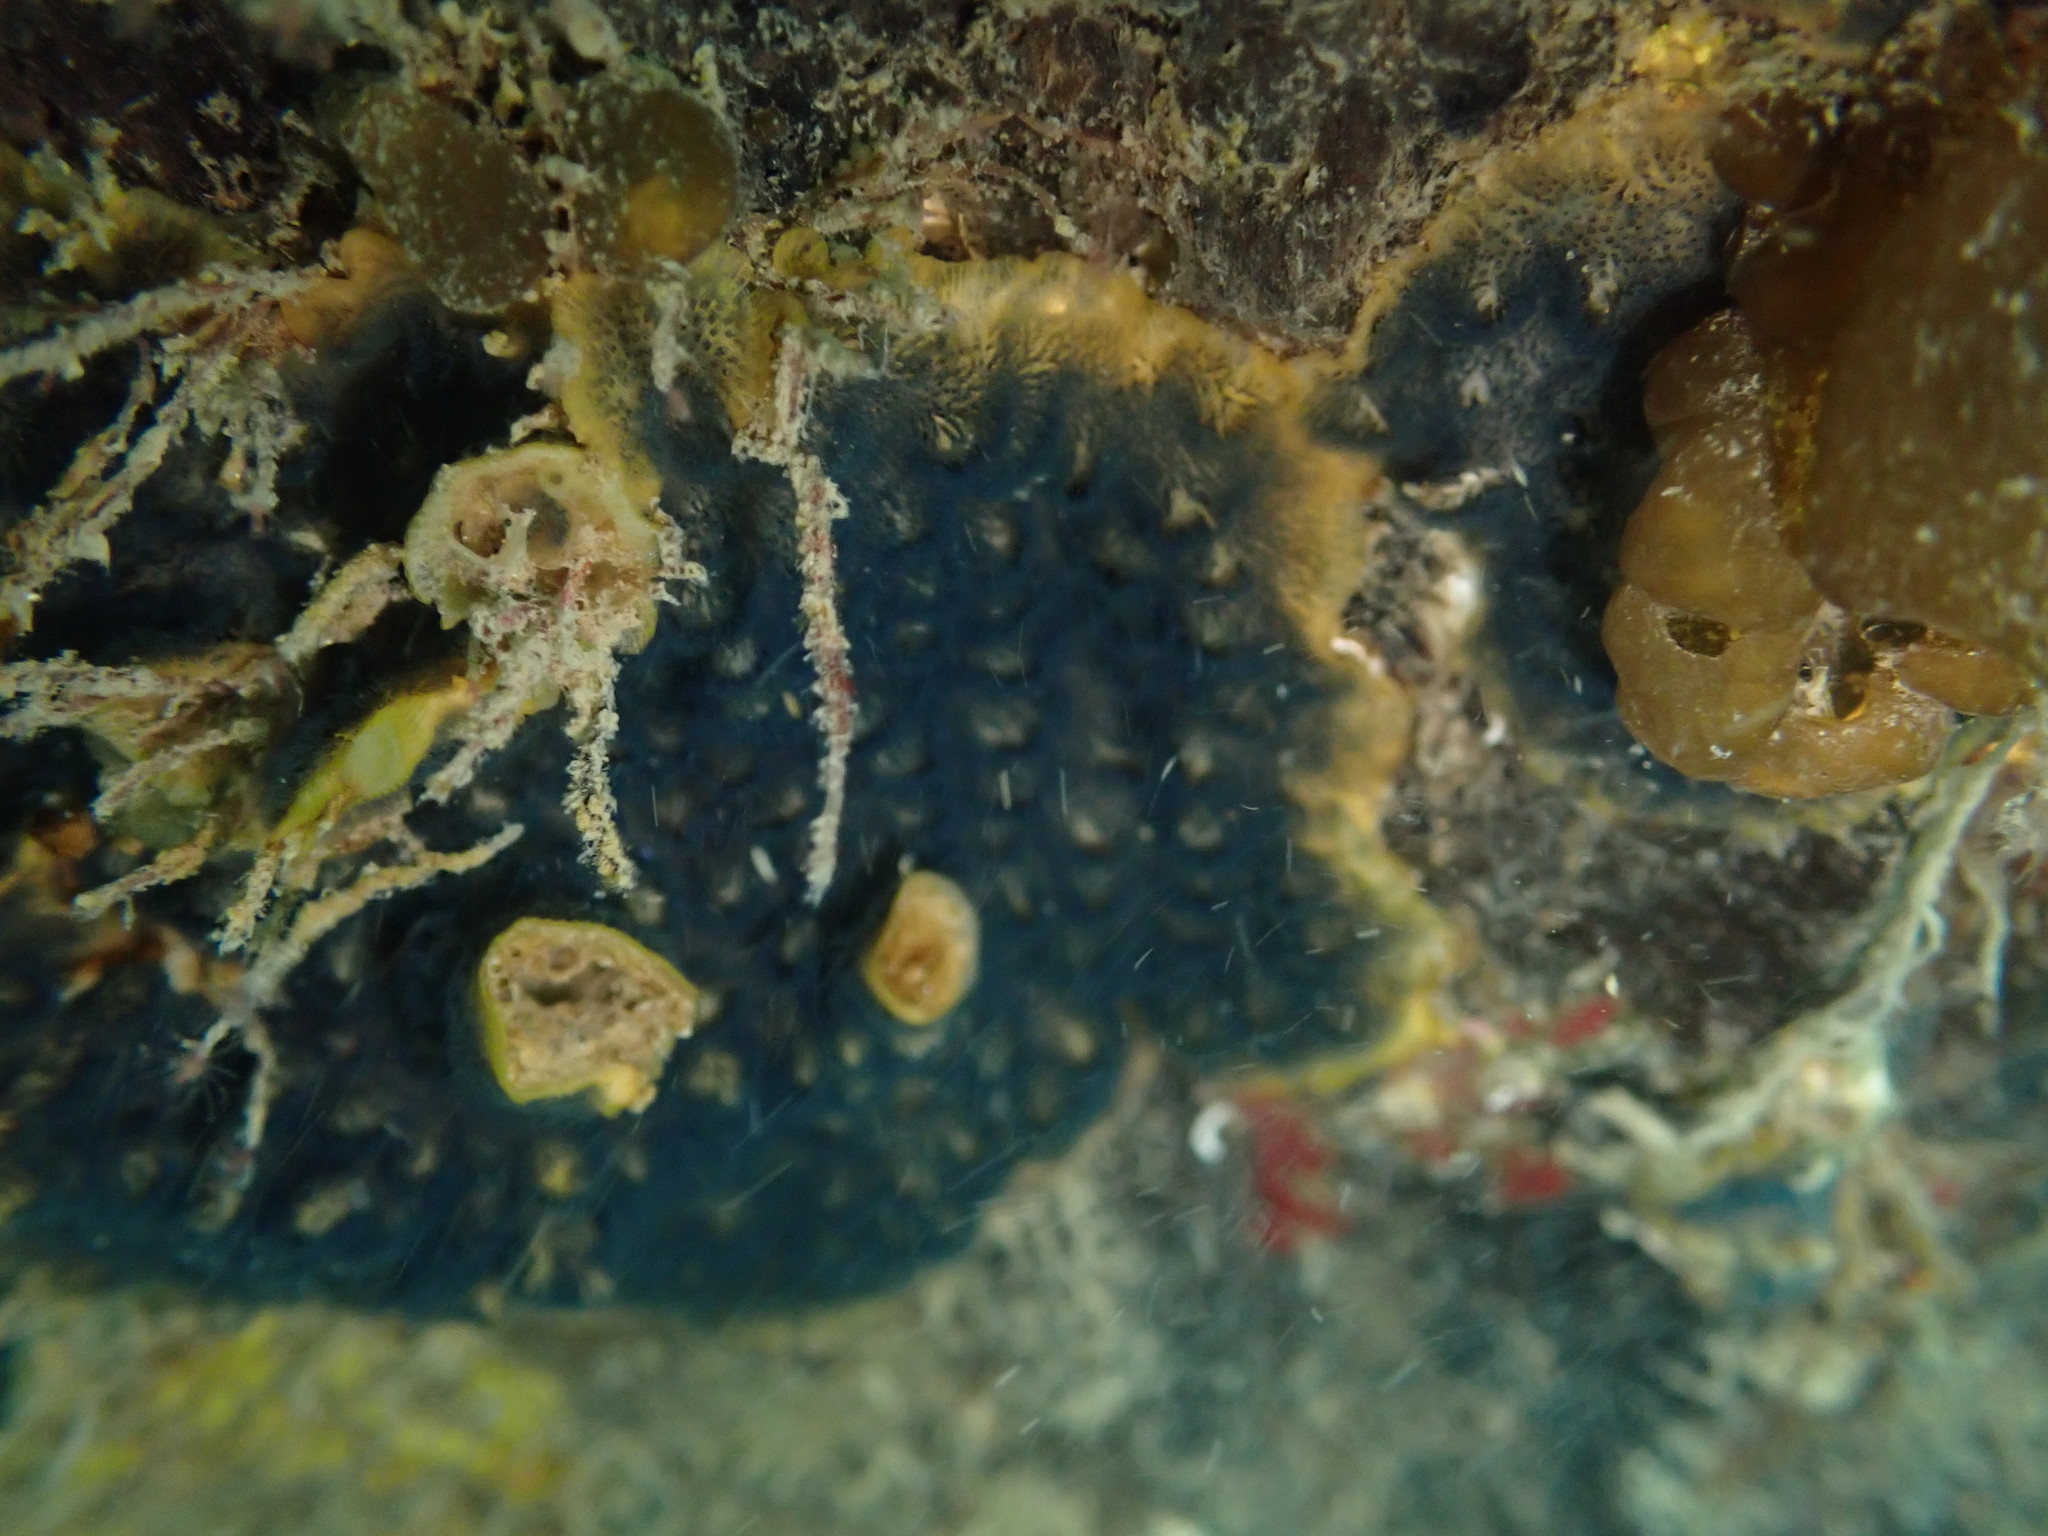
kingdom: Animalia
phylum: Bryozoa
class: Gymnolaemata
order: Cheilostomatida
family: Celleporidae
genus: Celleporaria
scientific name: Celleporaria nodulosa
